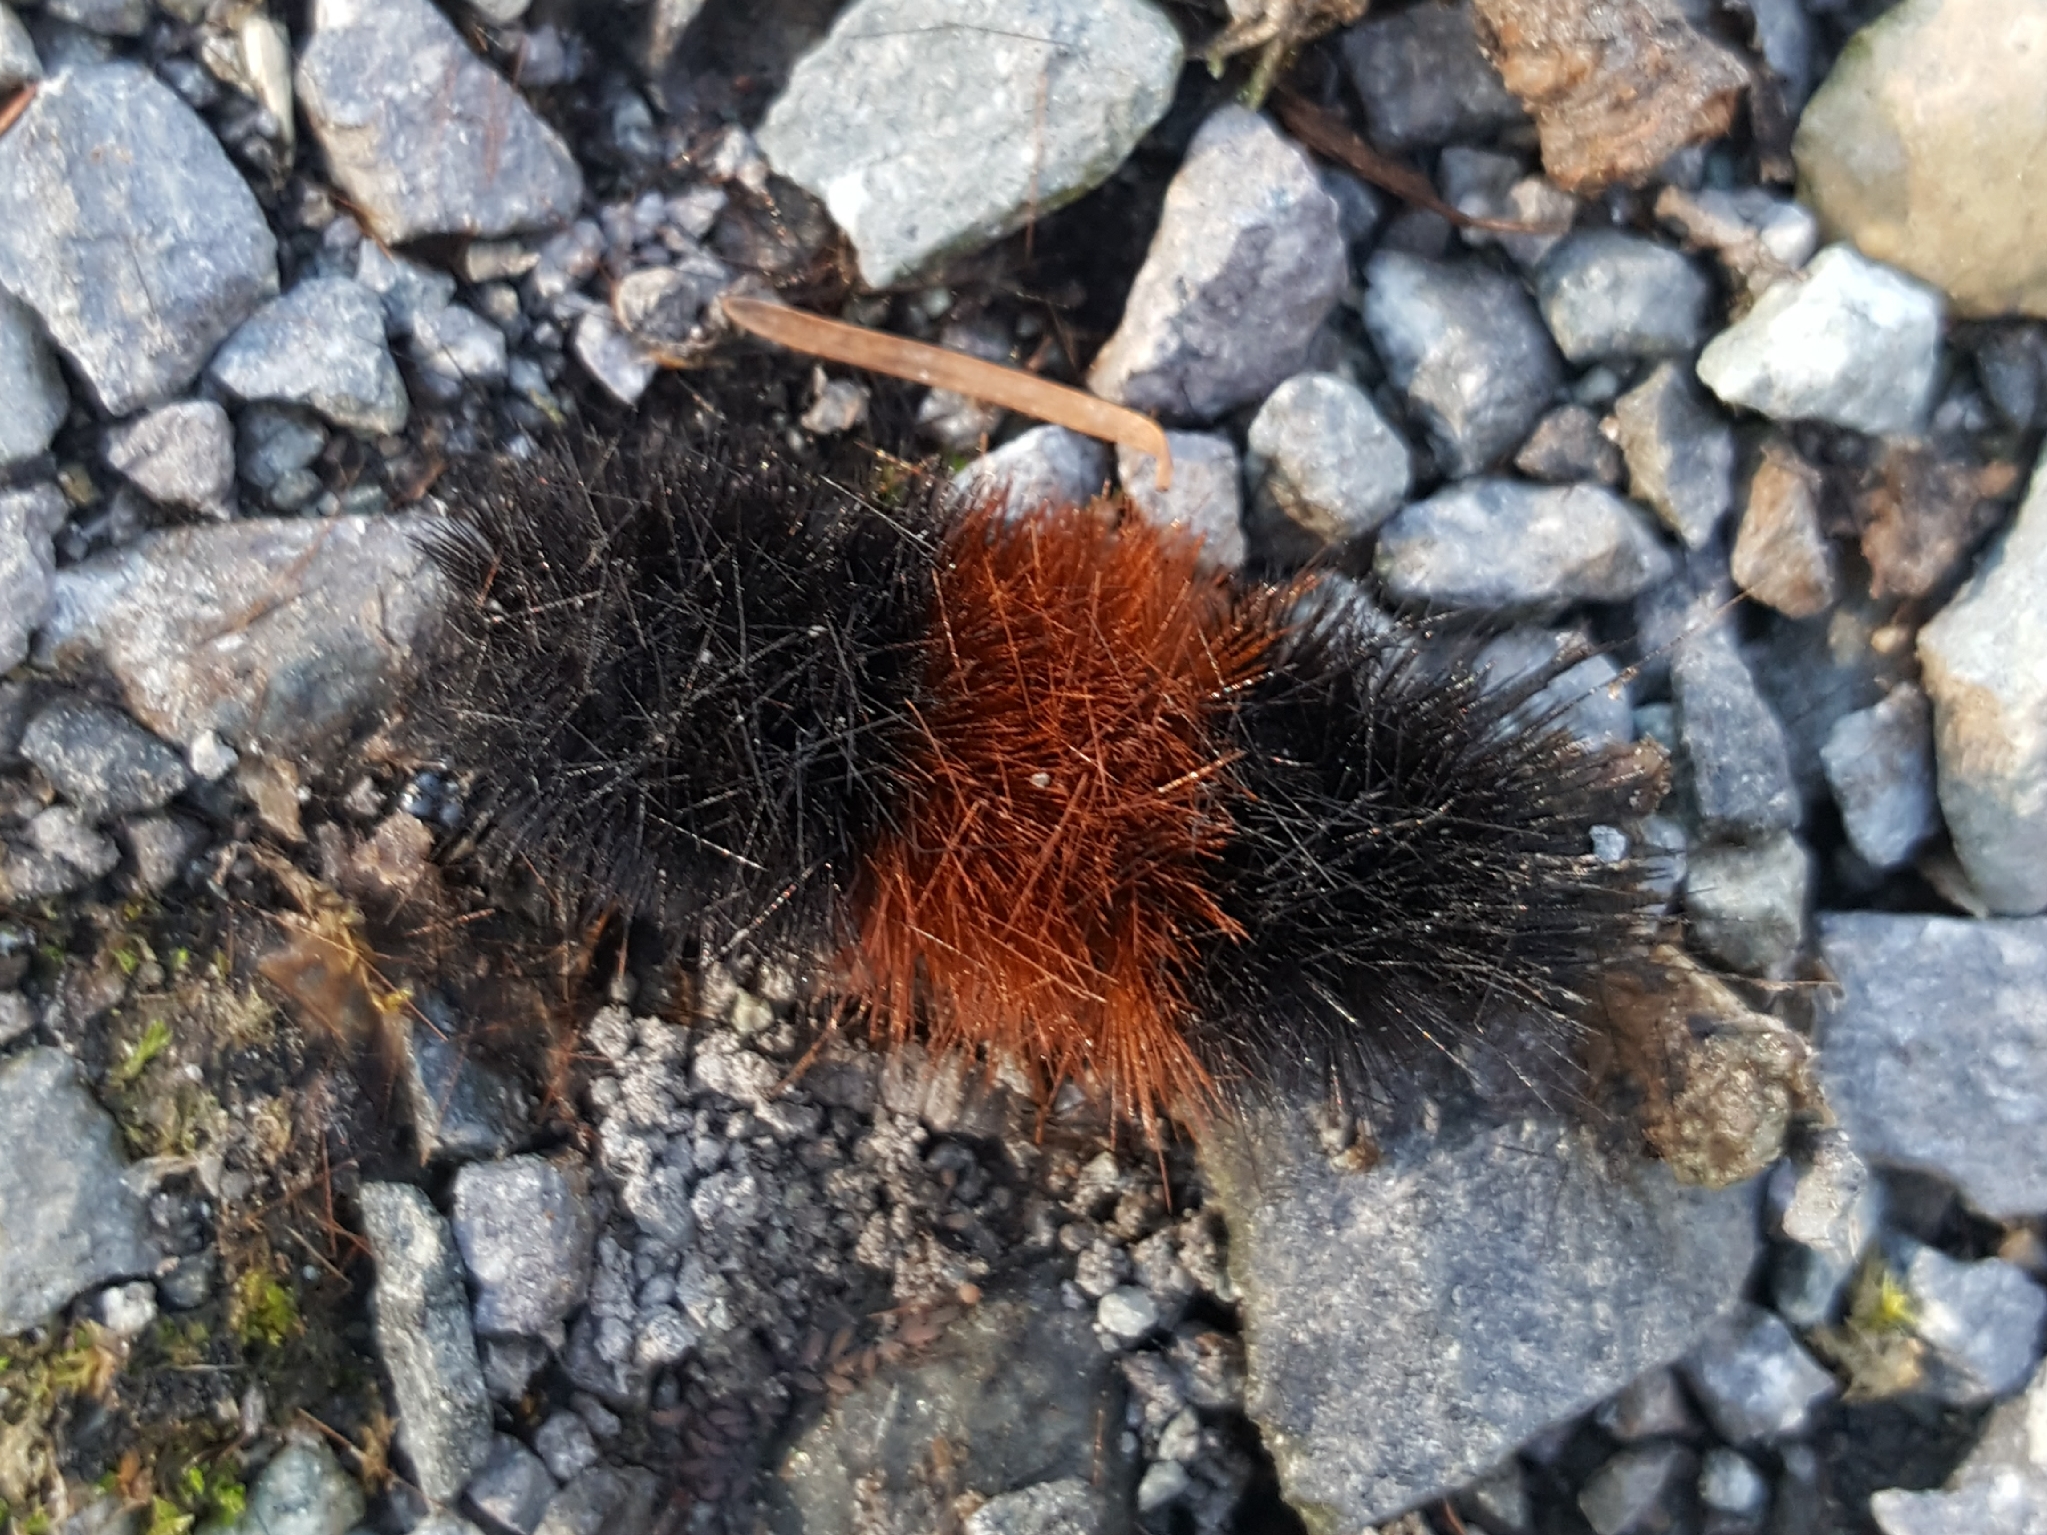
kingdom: Animalia
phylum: Arthropoda
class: Insecta
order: Lepidoptera
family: Erebidae
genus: Pyrrharctia
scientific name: Pyrrharctia isabella
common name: Isabella tiger moth
